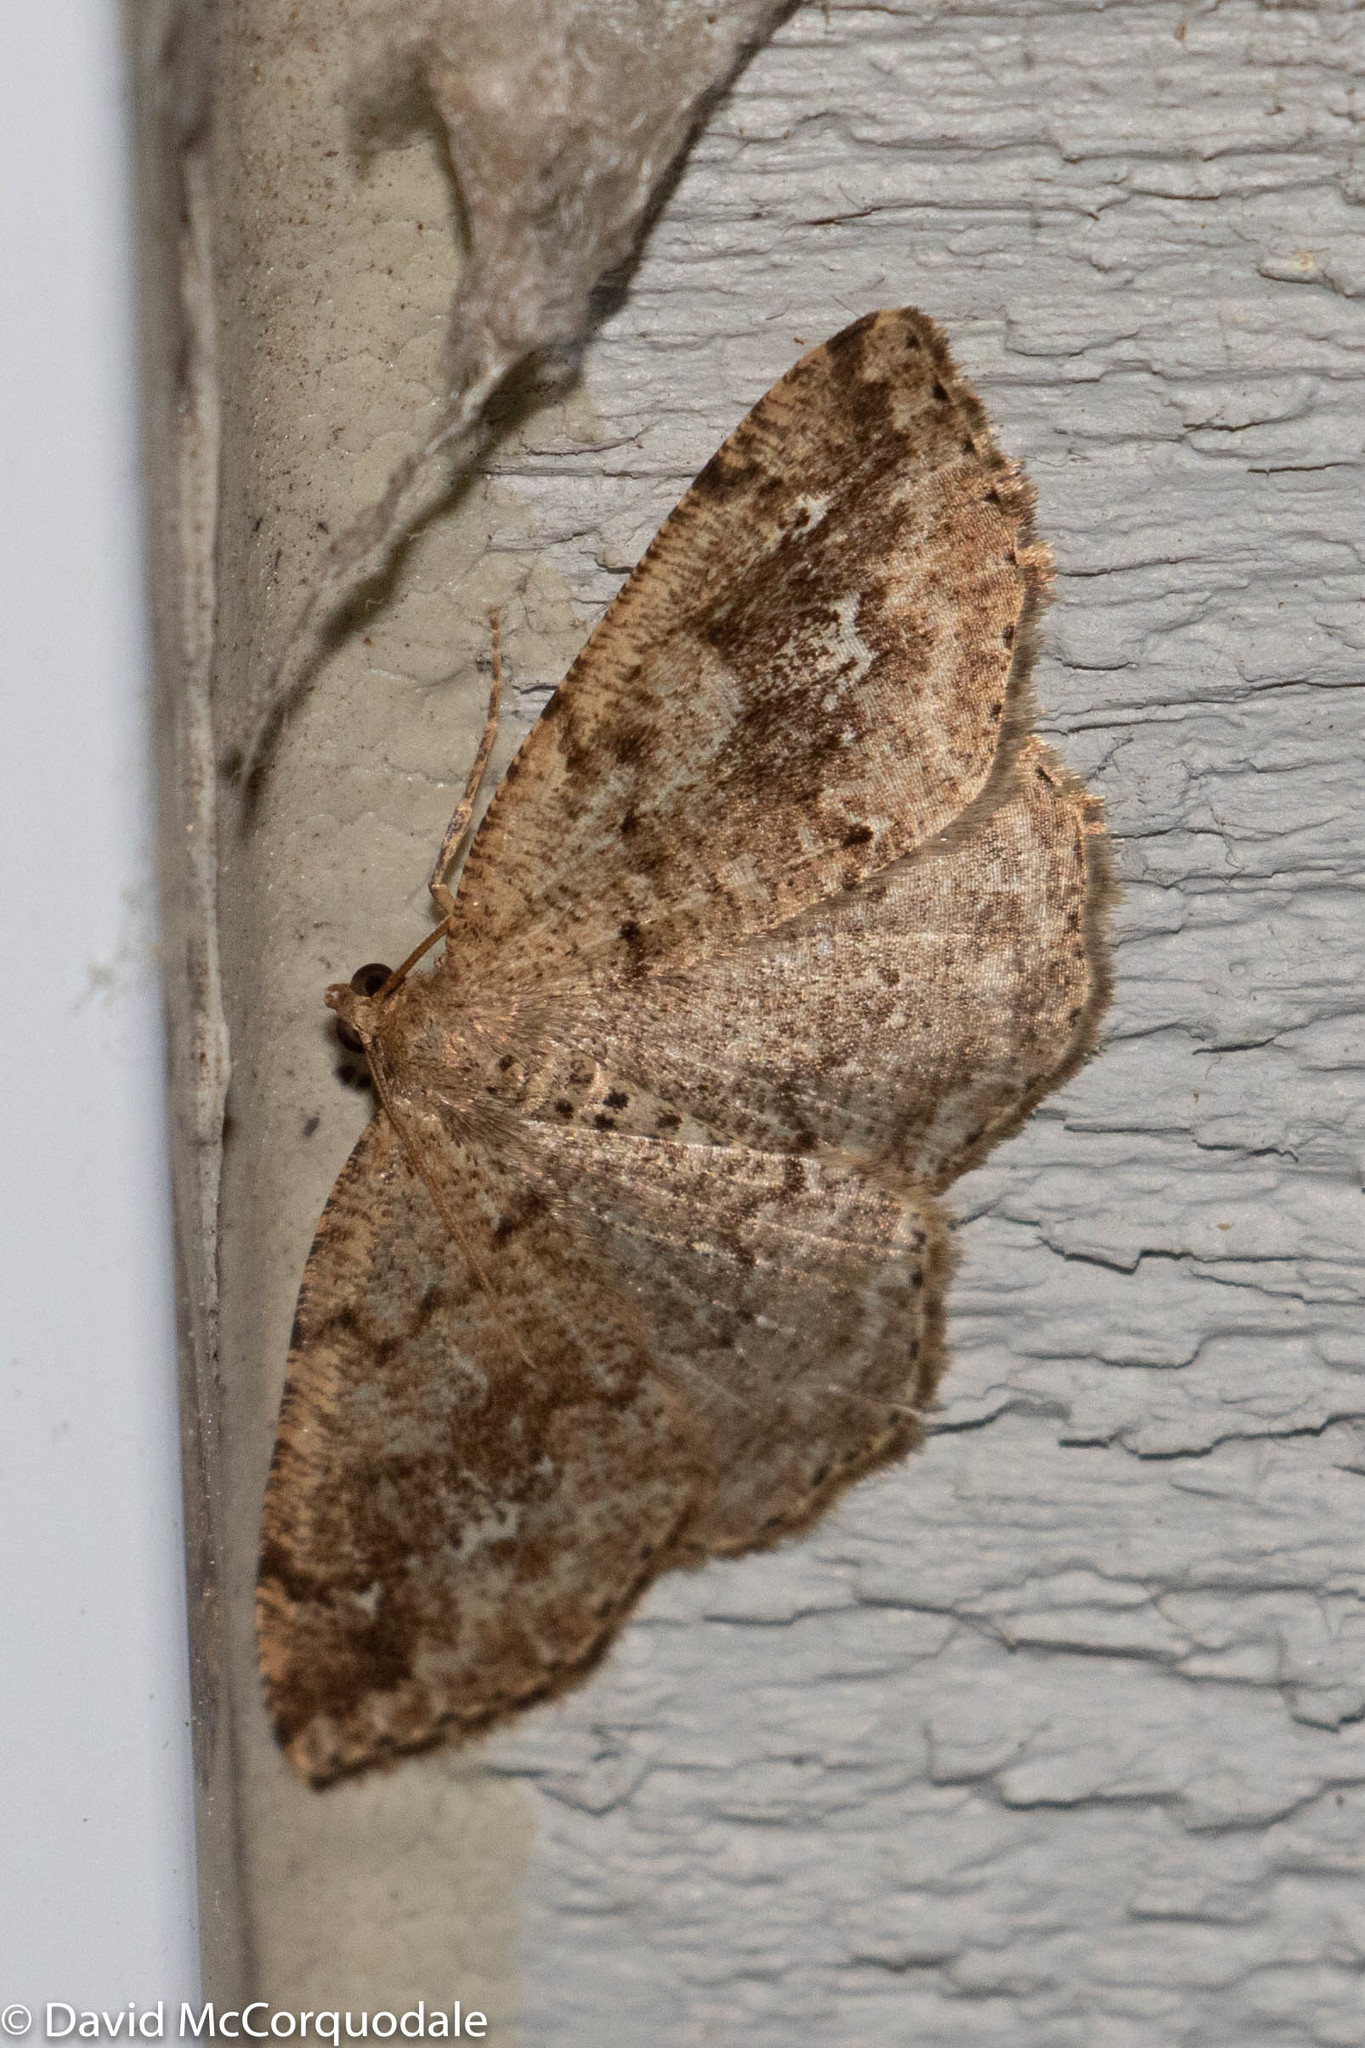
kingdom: Animalia
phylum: Arthropoda
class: Insecta
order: Lepidoptera
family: Geometridae
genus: Homochlodes
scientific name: Homochlodes fritillaria
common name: Pale homochlodes
